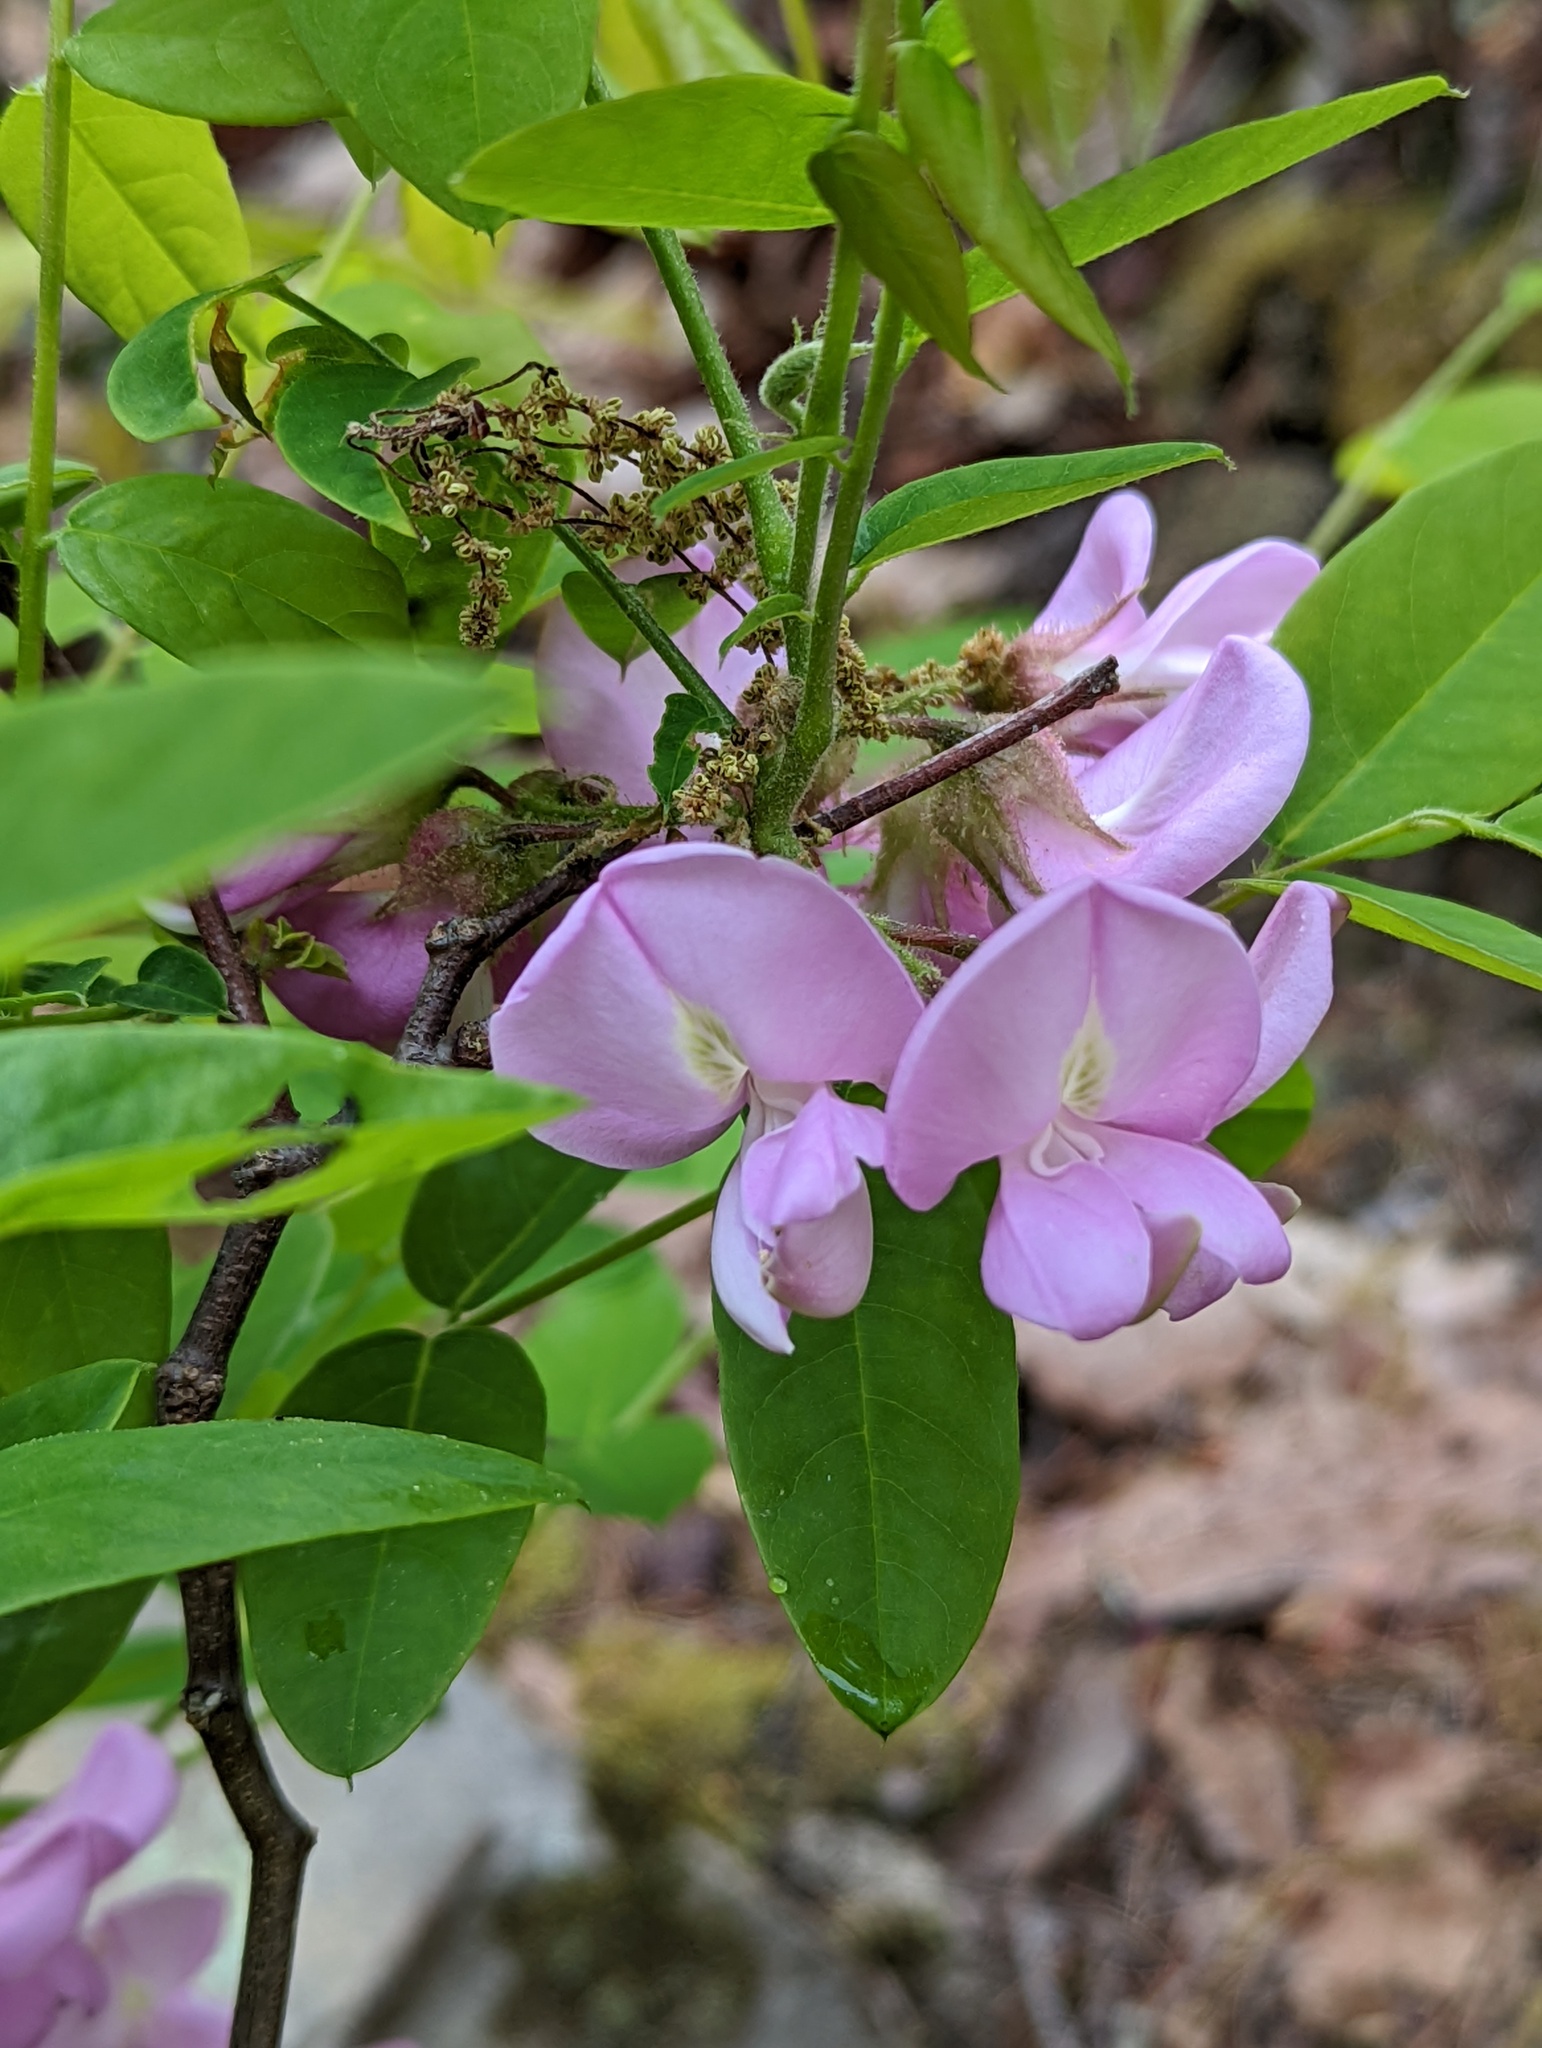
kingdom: Plantae
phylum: Tracheophyta
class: Magnoliopsida
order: Fabales
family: Fabaceae
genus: Robinia
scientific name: Robinia hispida
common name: Bristly locust
